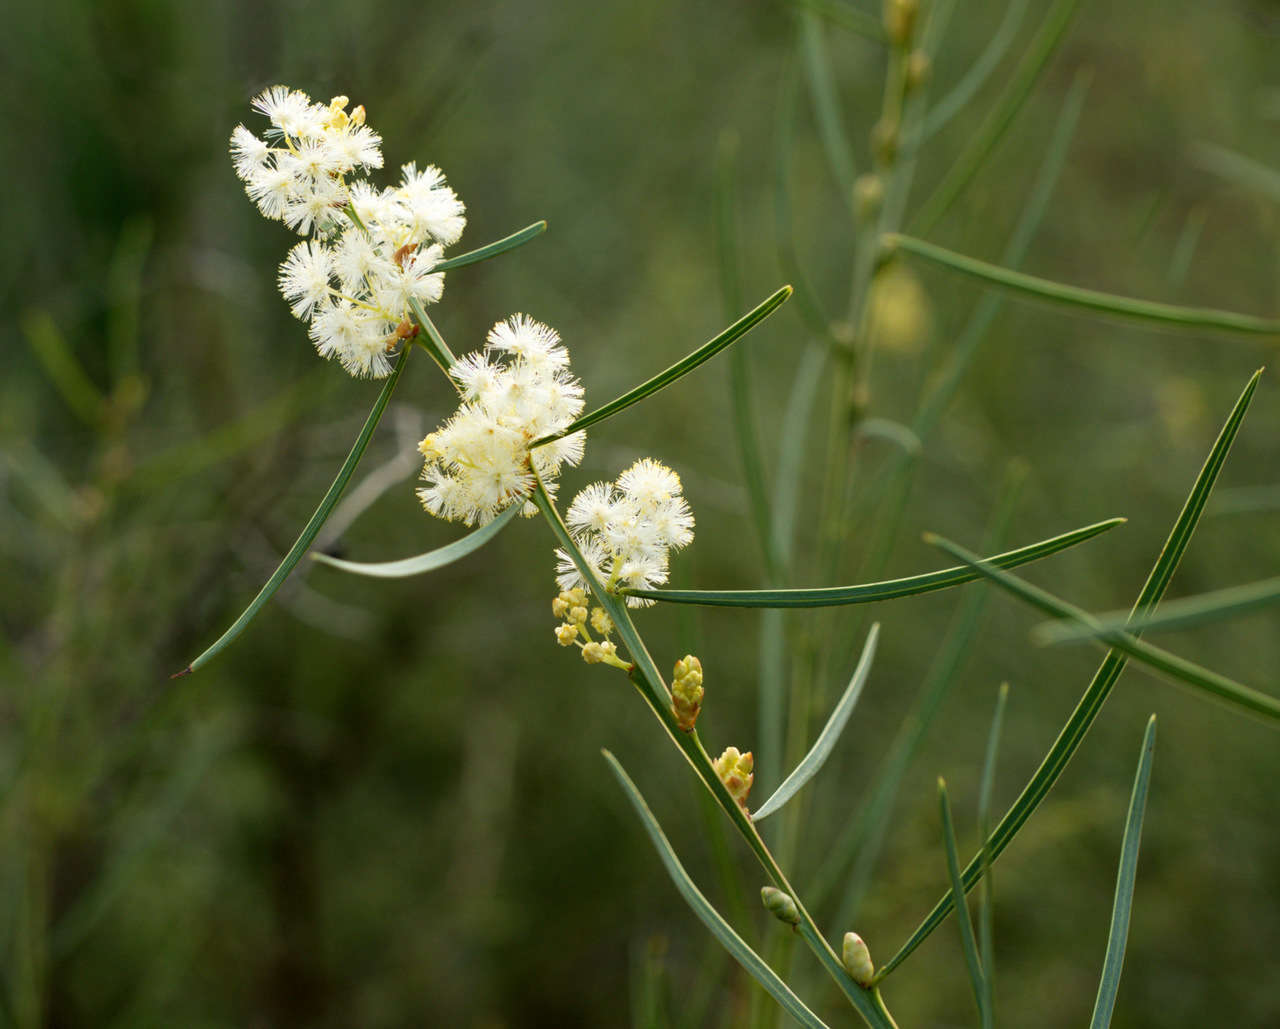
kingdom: Plantae
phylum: Tracheophyta
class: Magnoliopsida
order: Fabales
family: Fabaceae
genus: Acacia
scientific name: Acacia suaveolens
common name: Sweet acacia
